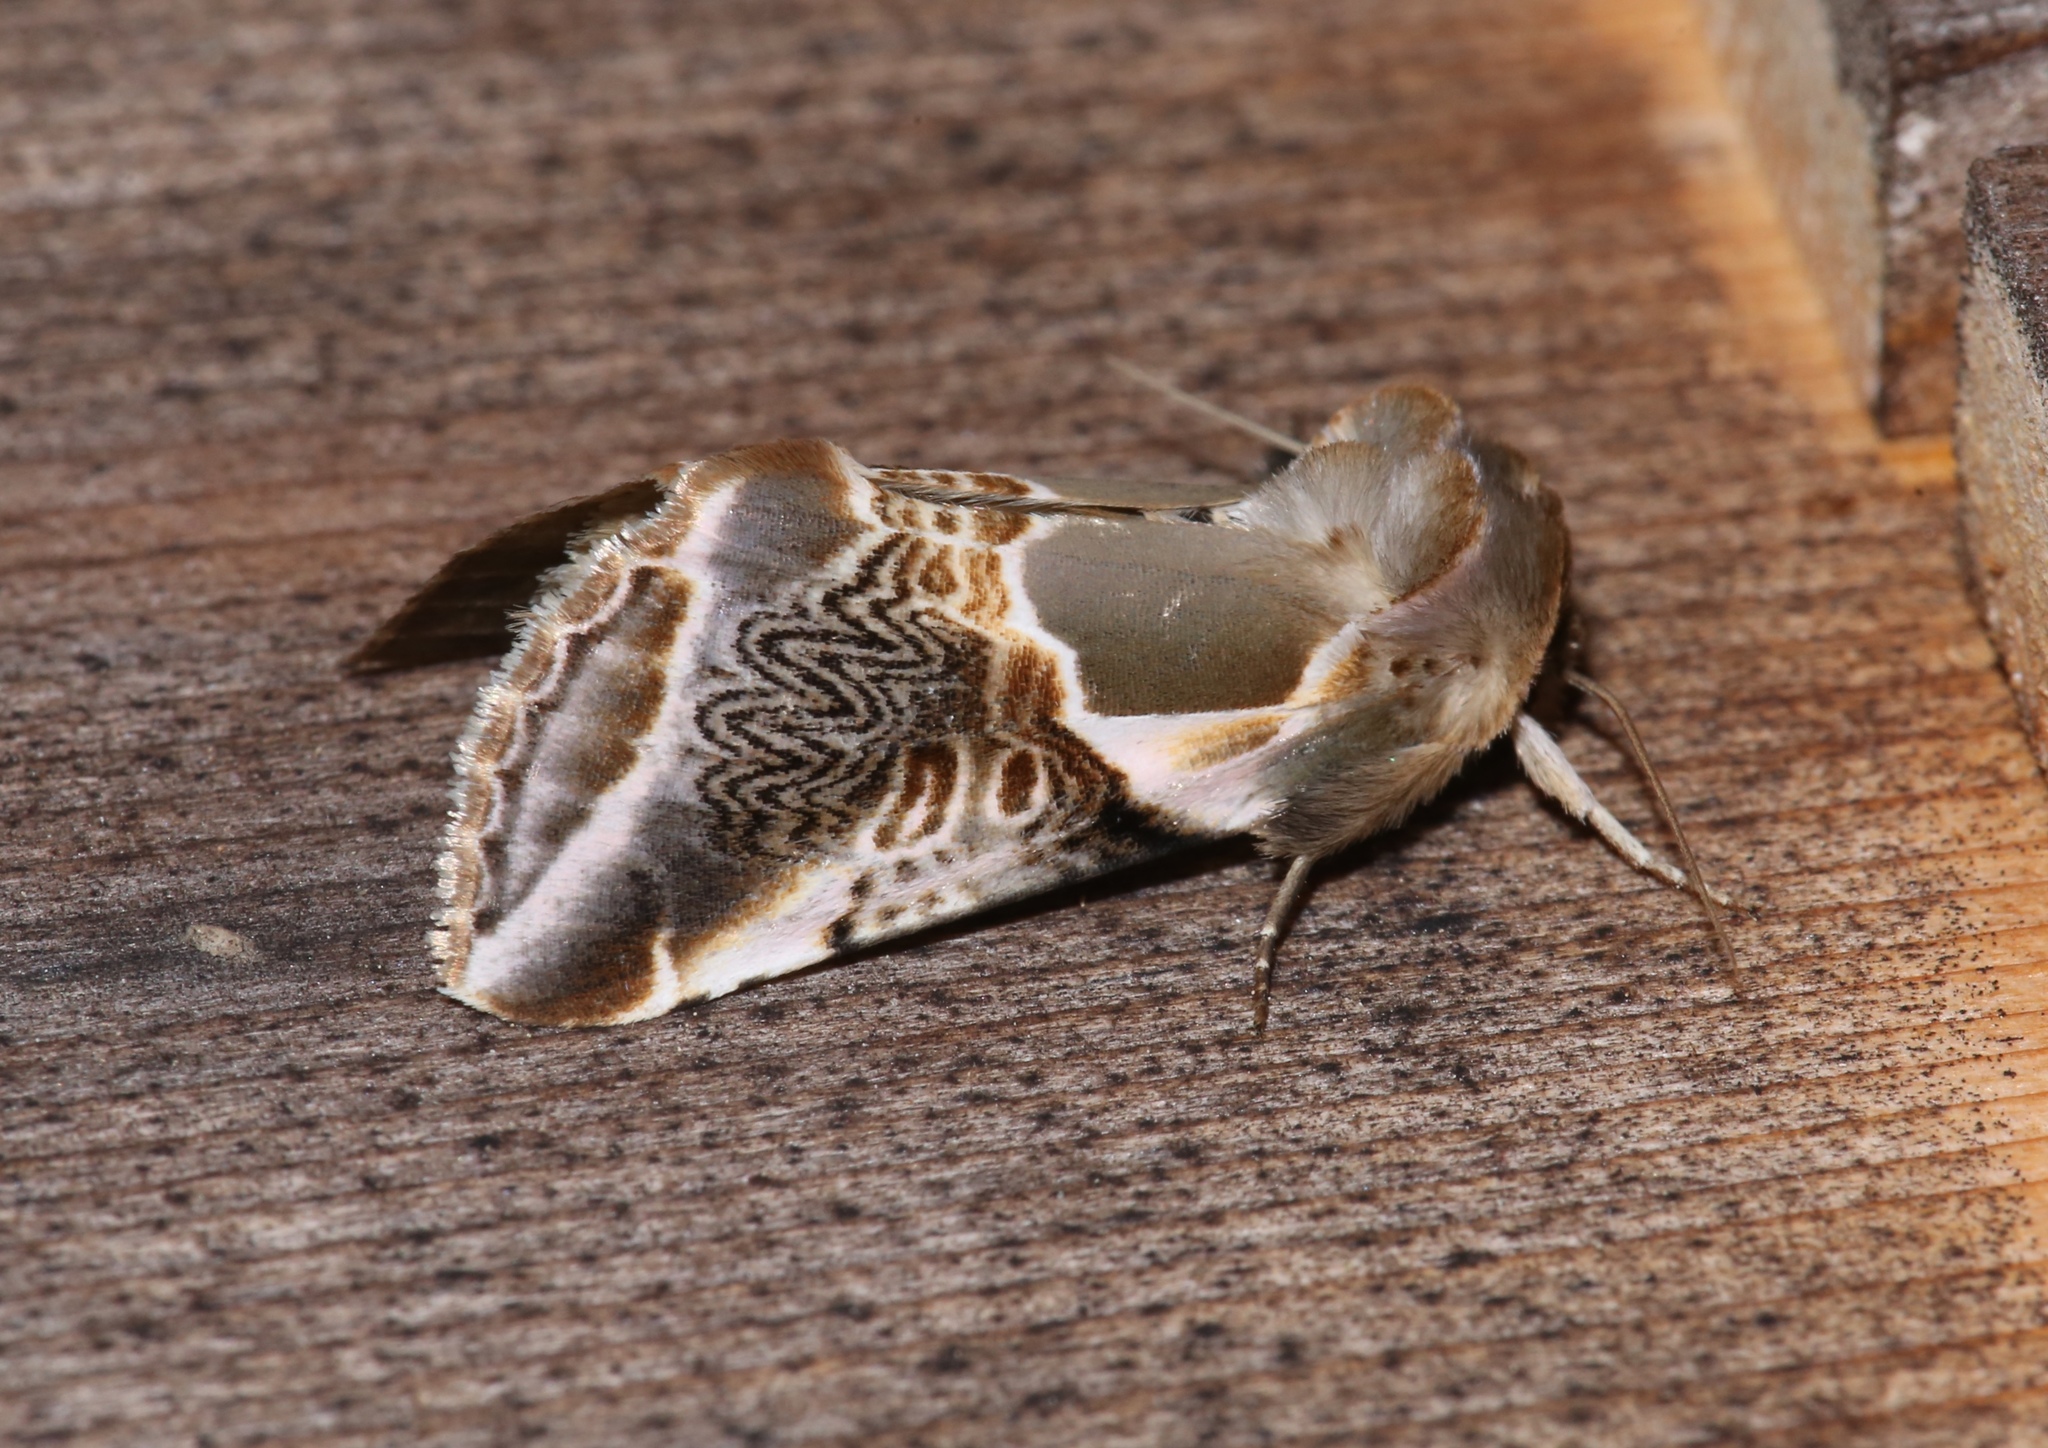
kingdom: Animalia
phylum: Arthropoda
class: Insecta
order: Lepidoptera
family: Drepanidae
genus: Habrosyne
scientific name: Habrosyne scripta
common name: Lettered habrosyne moth
